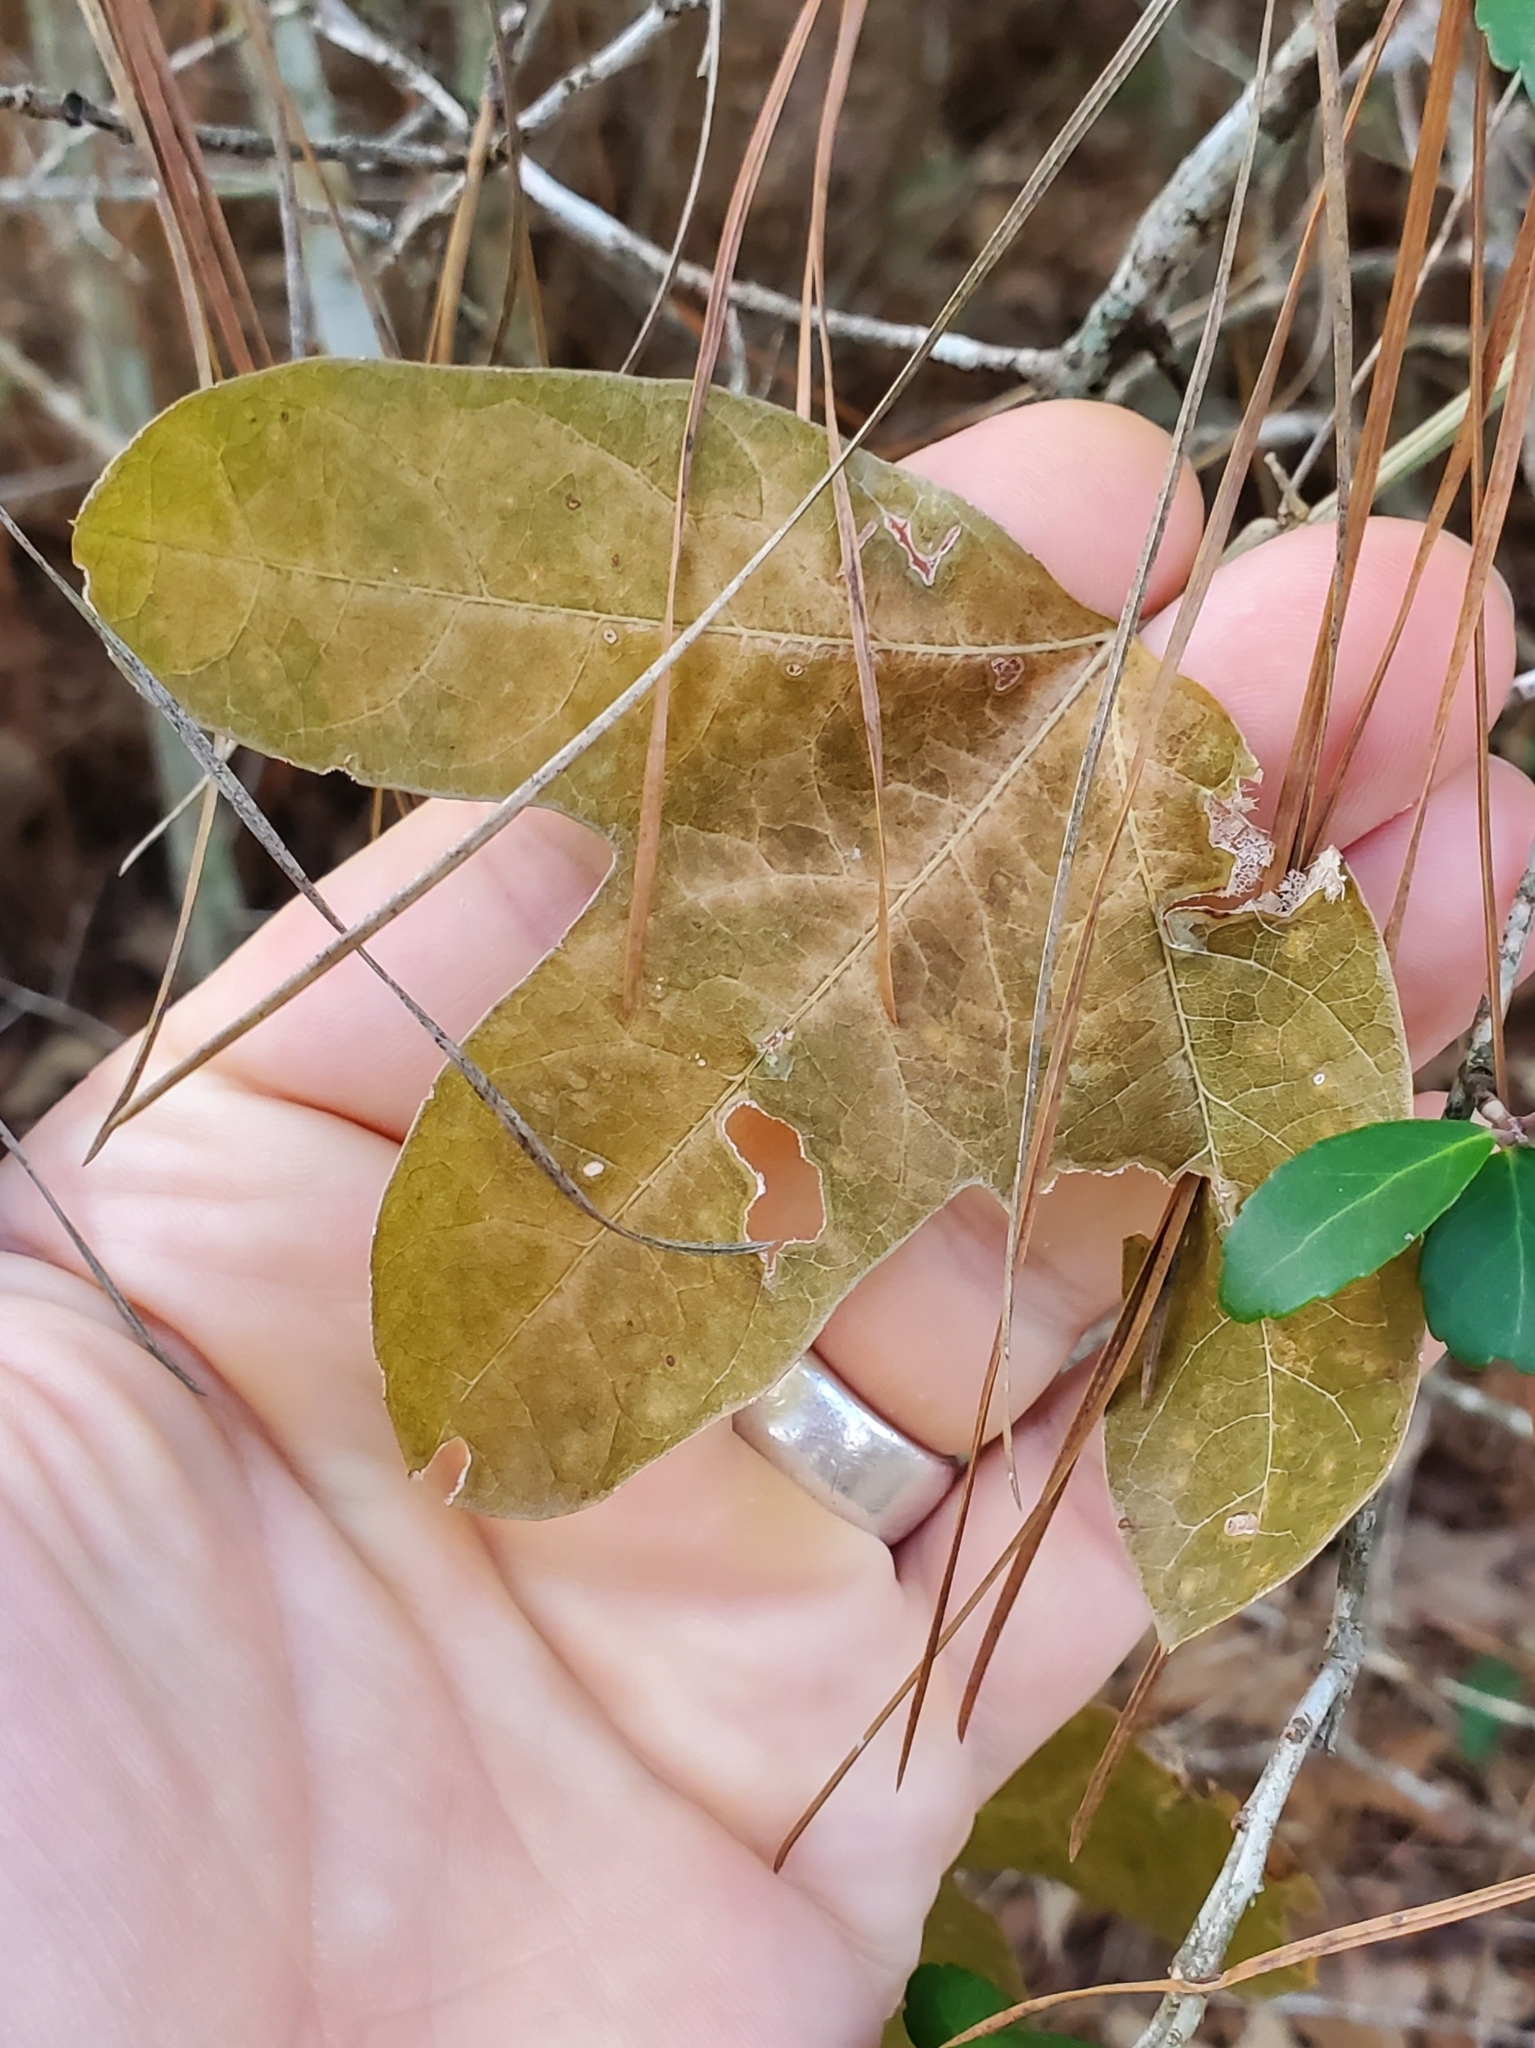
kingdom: Plantae
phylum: Tracheophyta
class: Magnoliopsida
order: Malpighiales
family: Passifloraceae
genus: Passiflora
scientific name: Passiflora lutea
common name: Yellow passionflower
